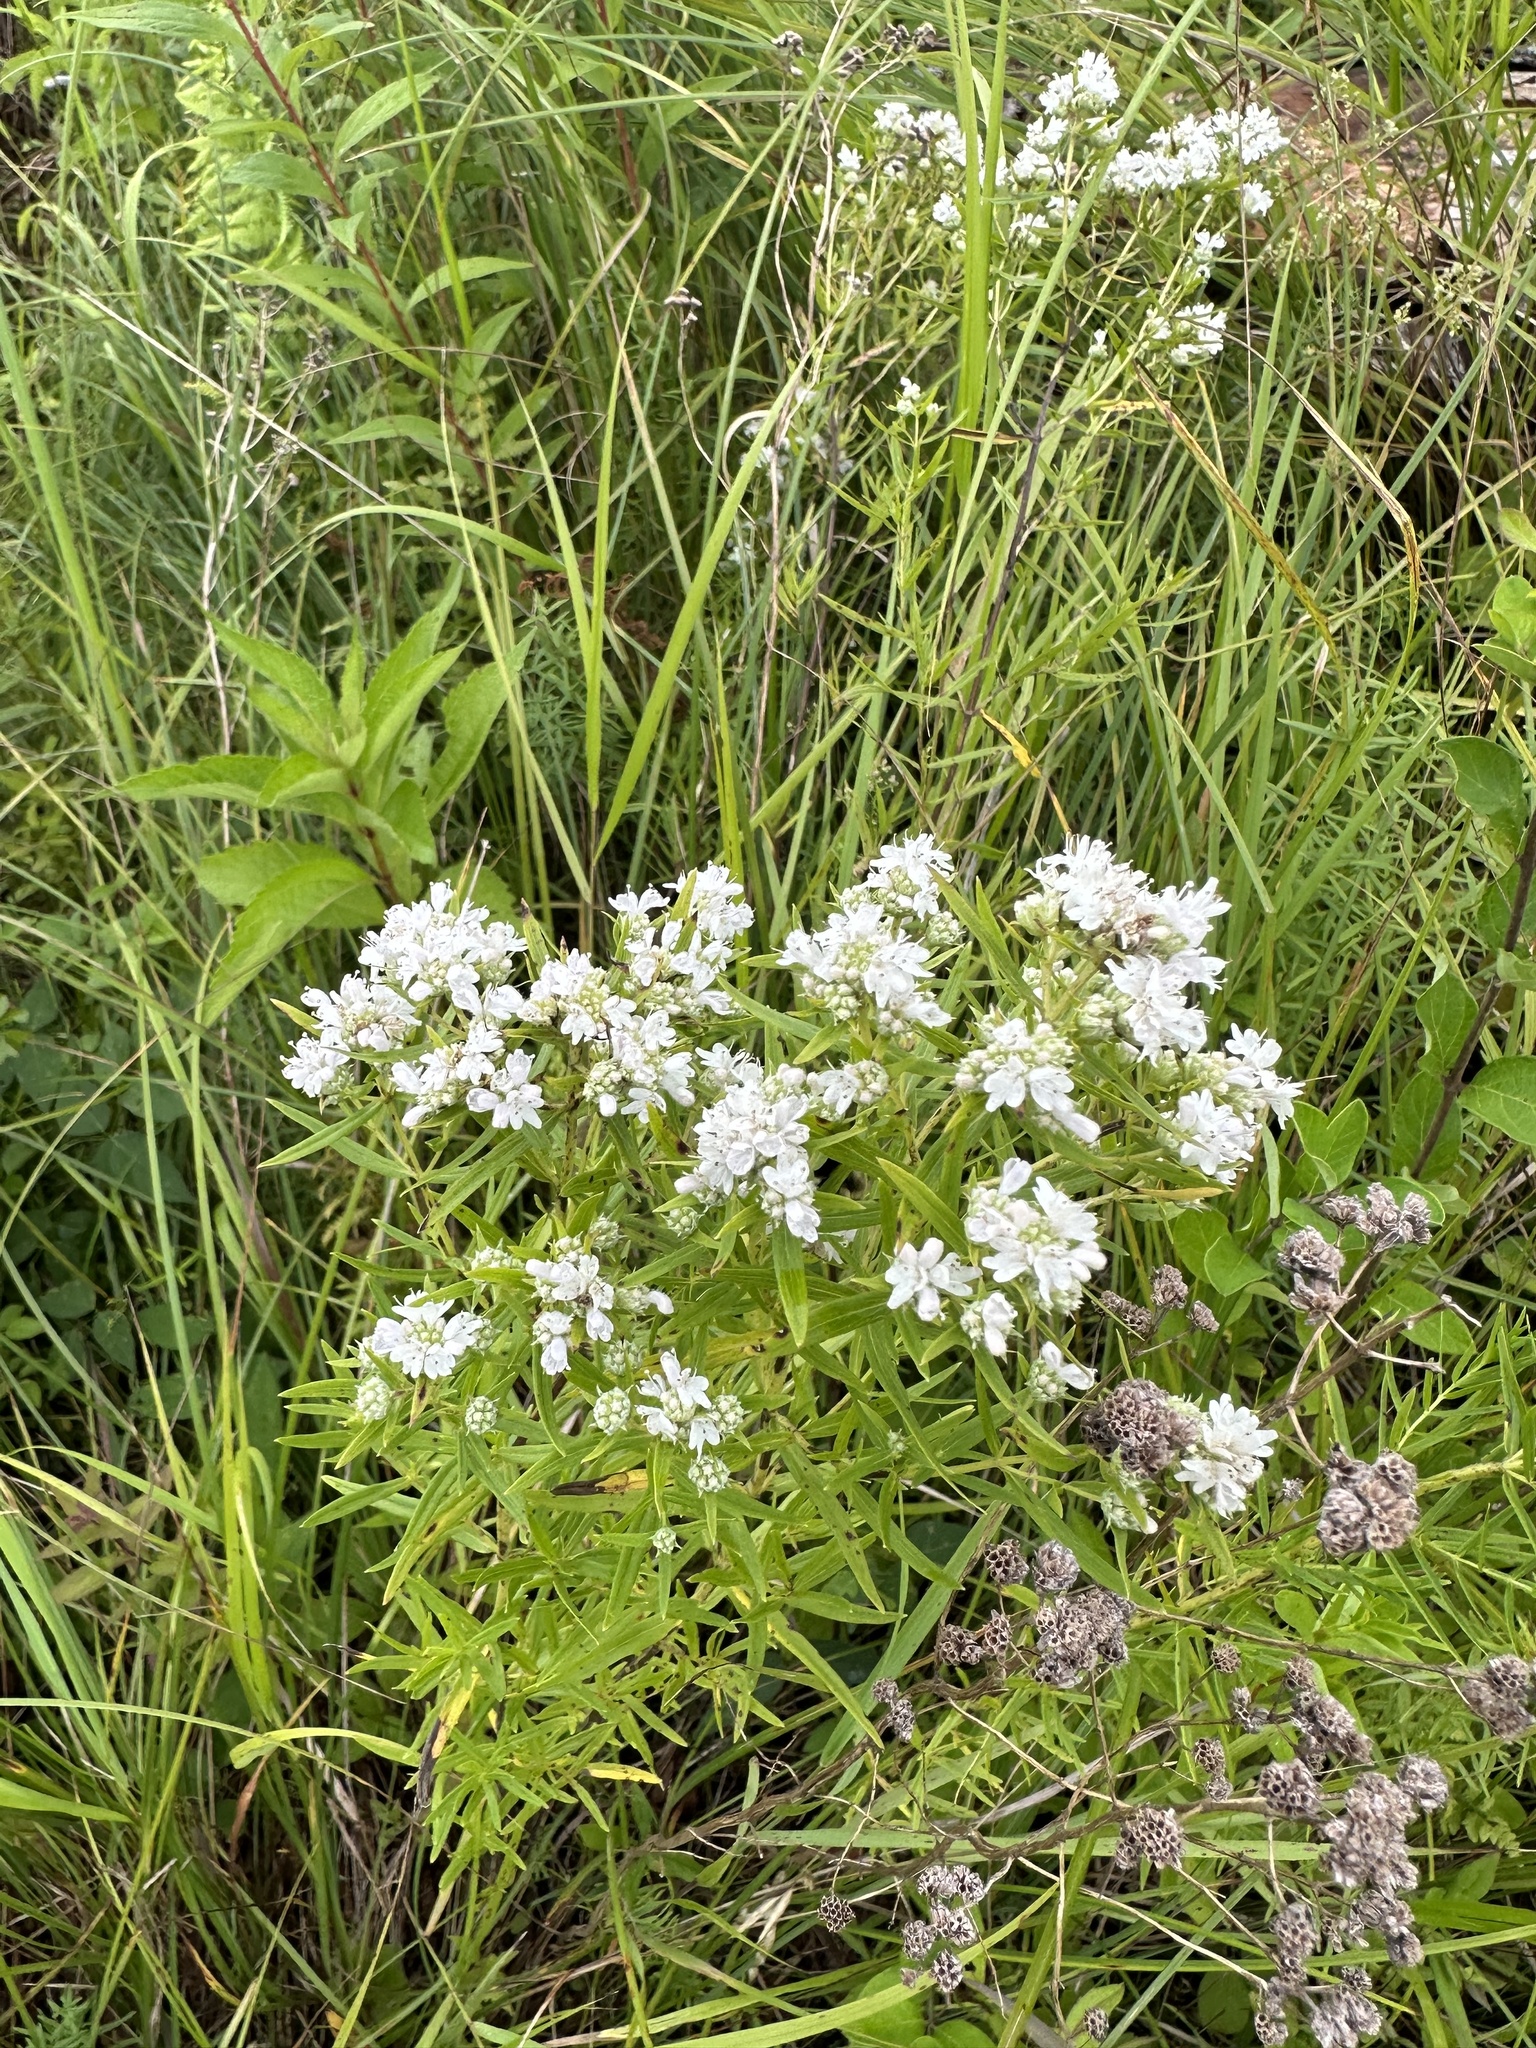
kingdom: Plantae
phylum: Tracheophyta
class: Magnoliopsida
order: Lamiales
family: Lamiaceae
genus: Pycnanthemum
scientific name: Pycnanthemum virginianum
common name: Virginia mountain-mint
